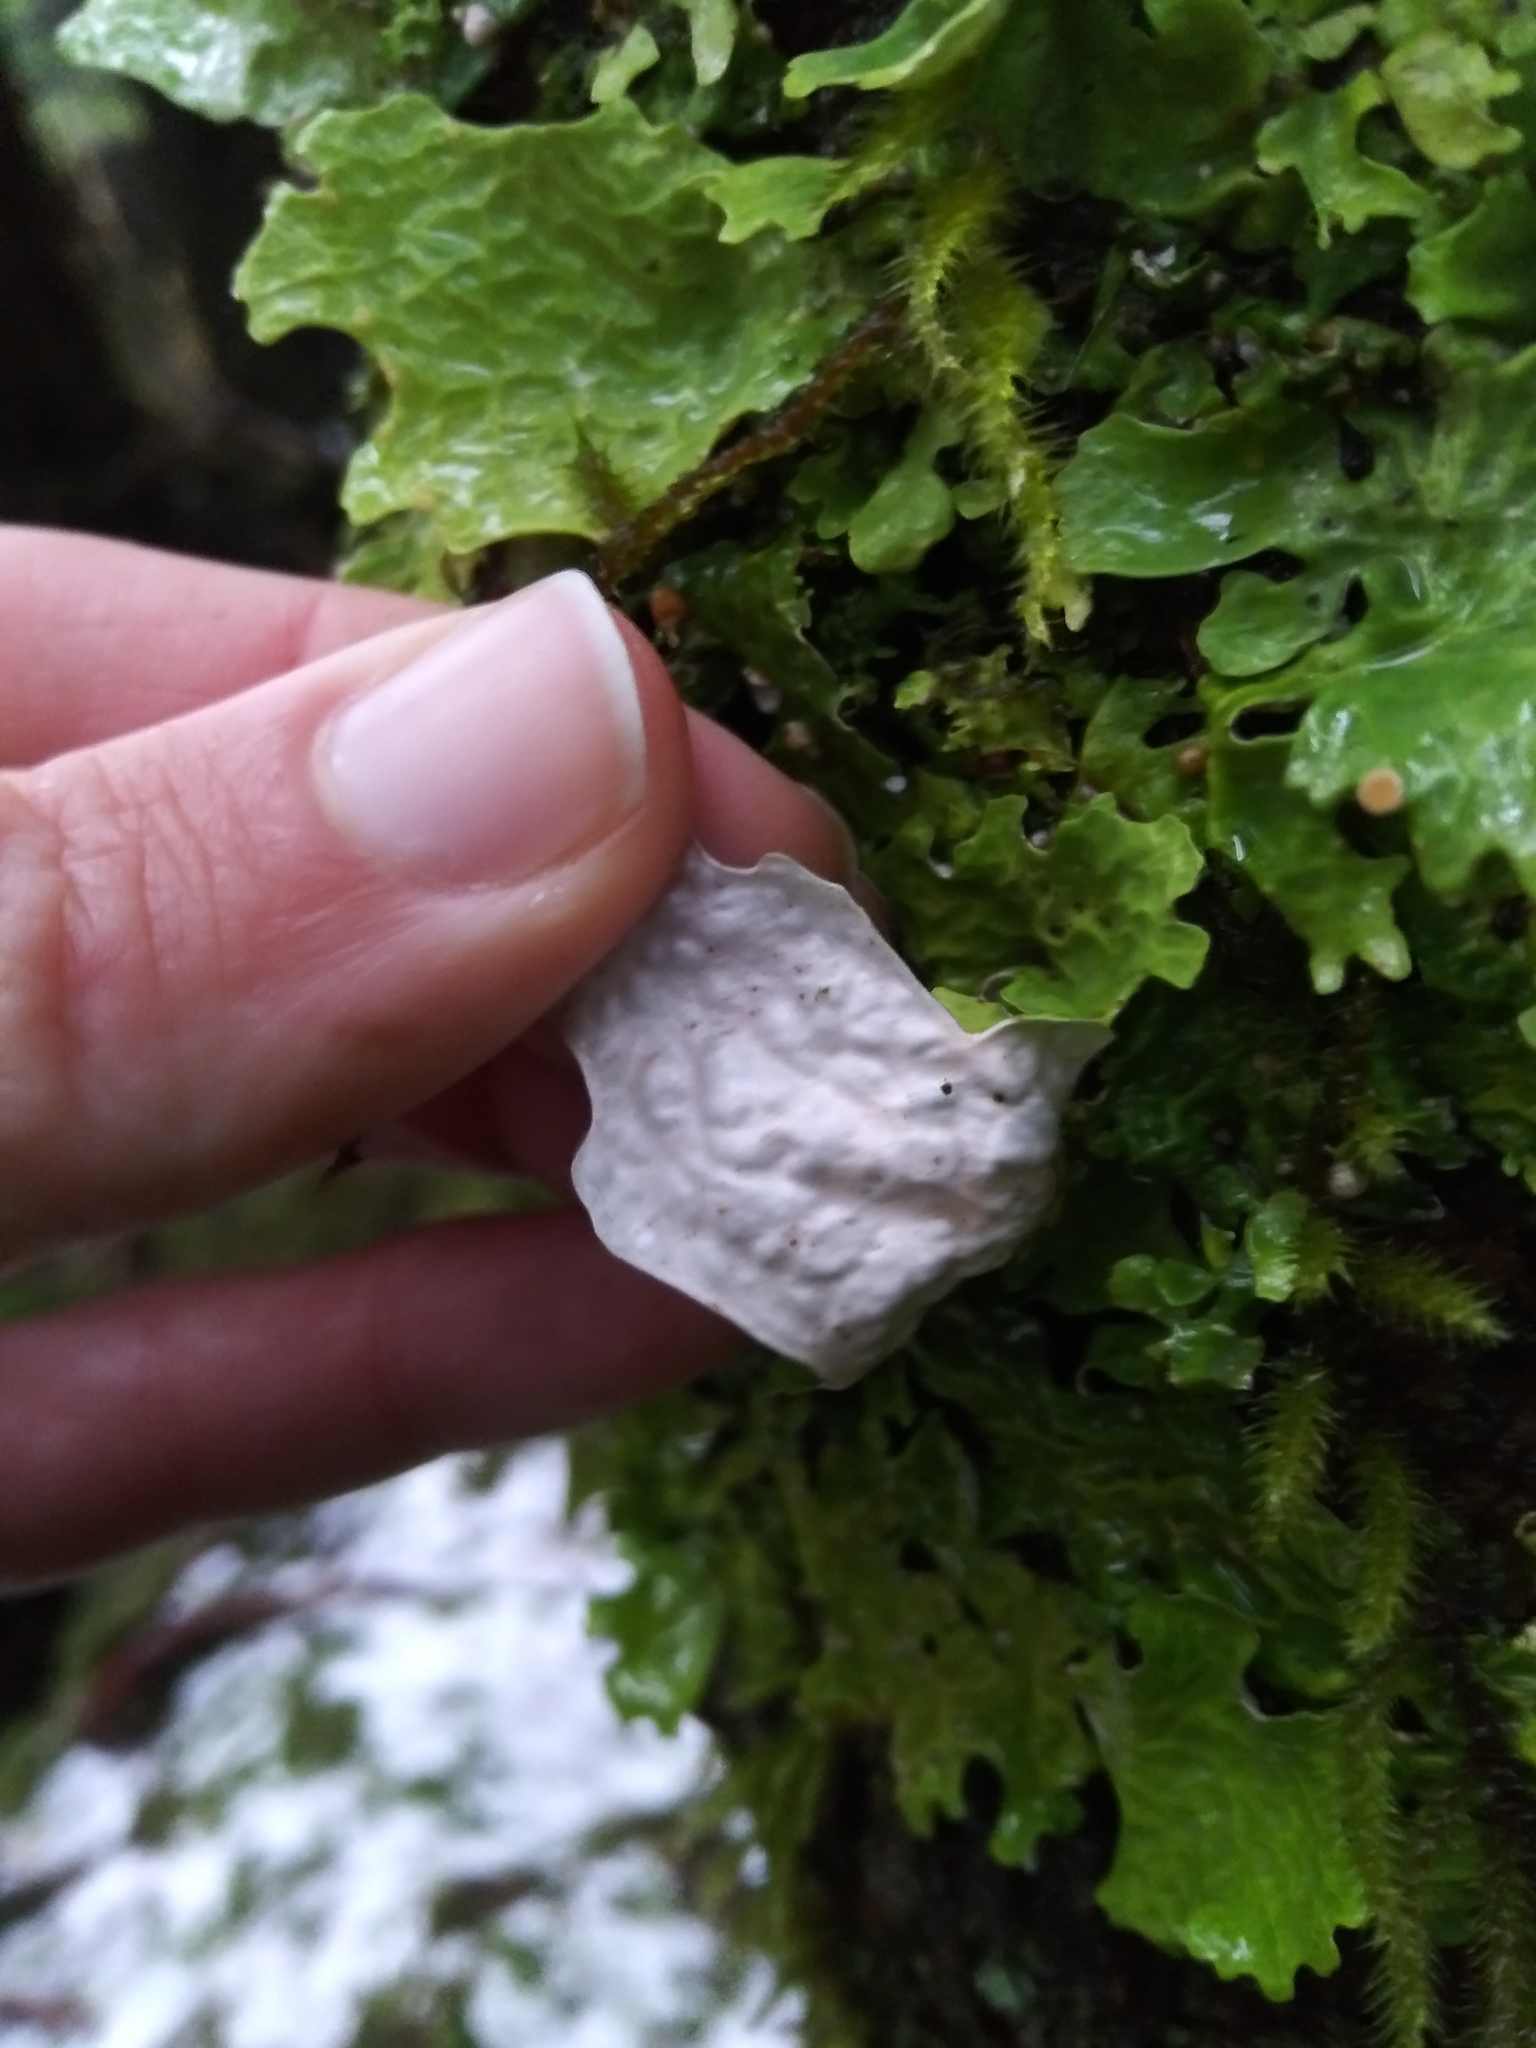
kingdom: Fungi
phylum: Ascomycota
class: Lecanoromycetes
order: Peltigerales
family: Lobariaceae
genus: Lobaria
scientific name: Lobaria linita
